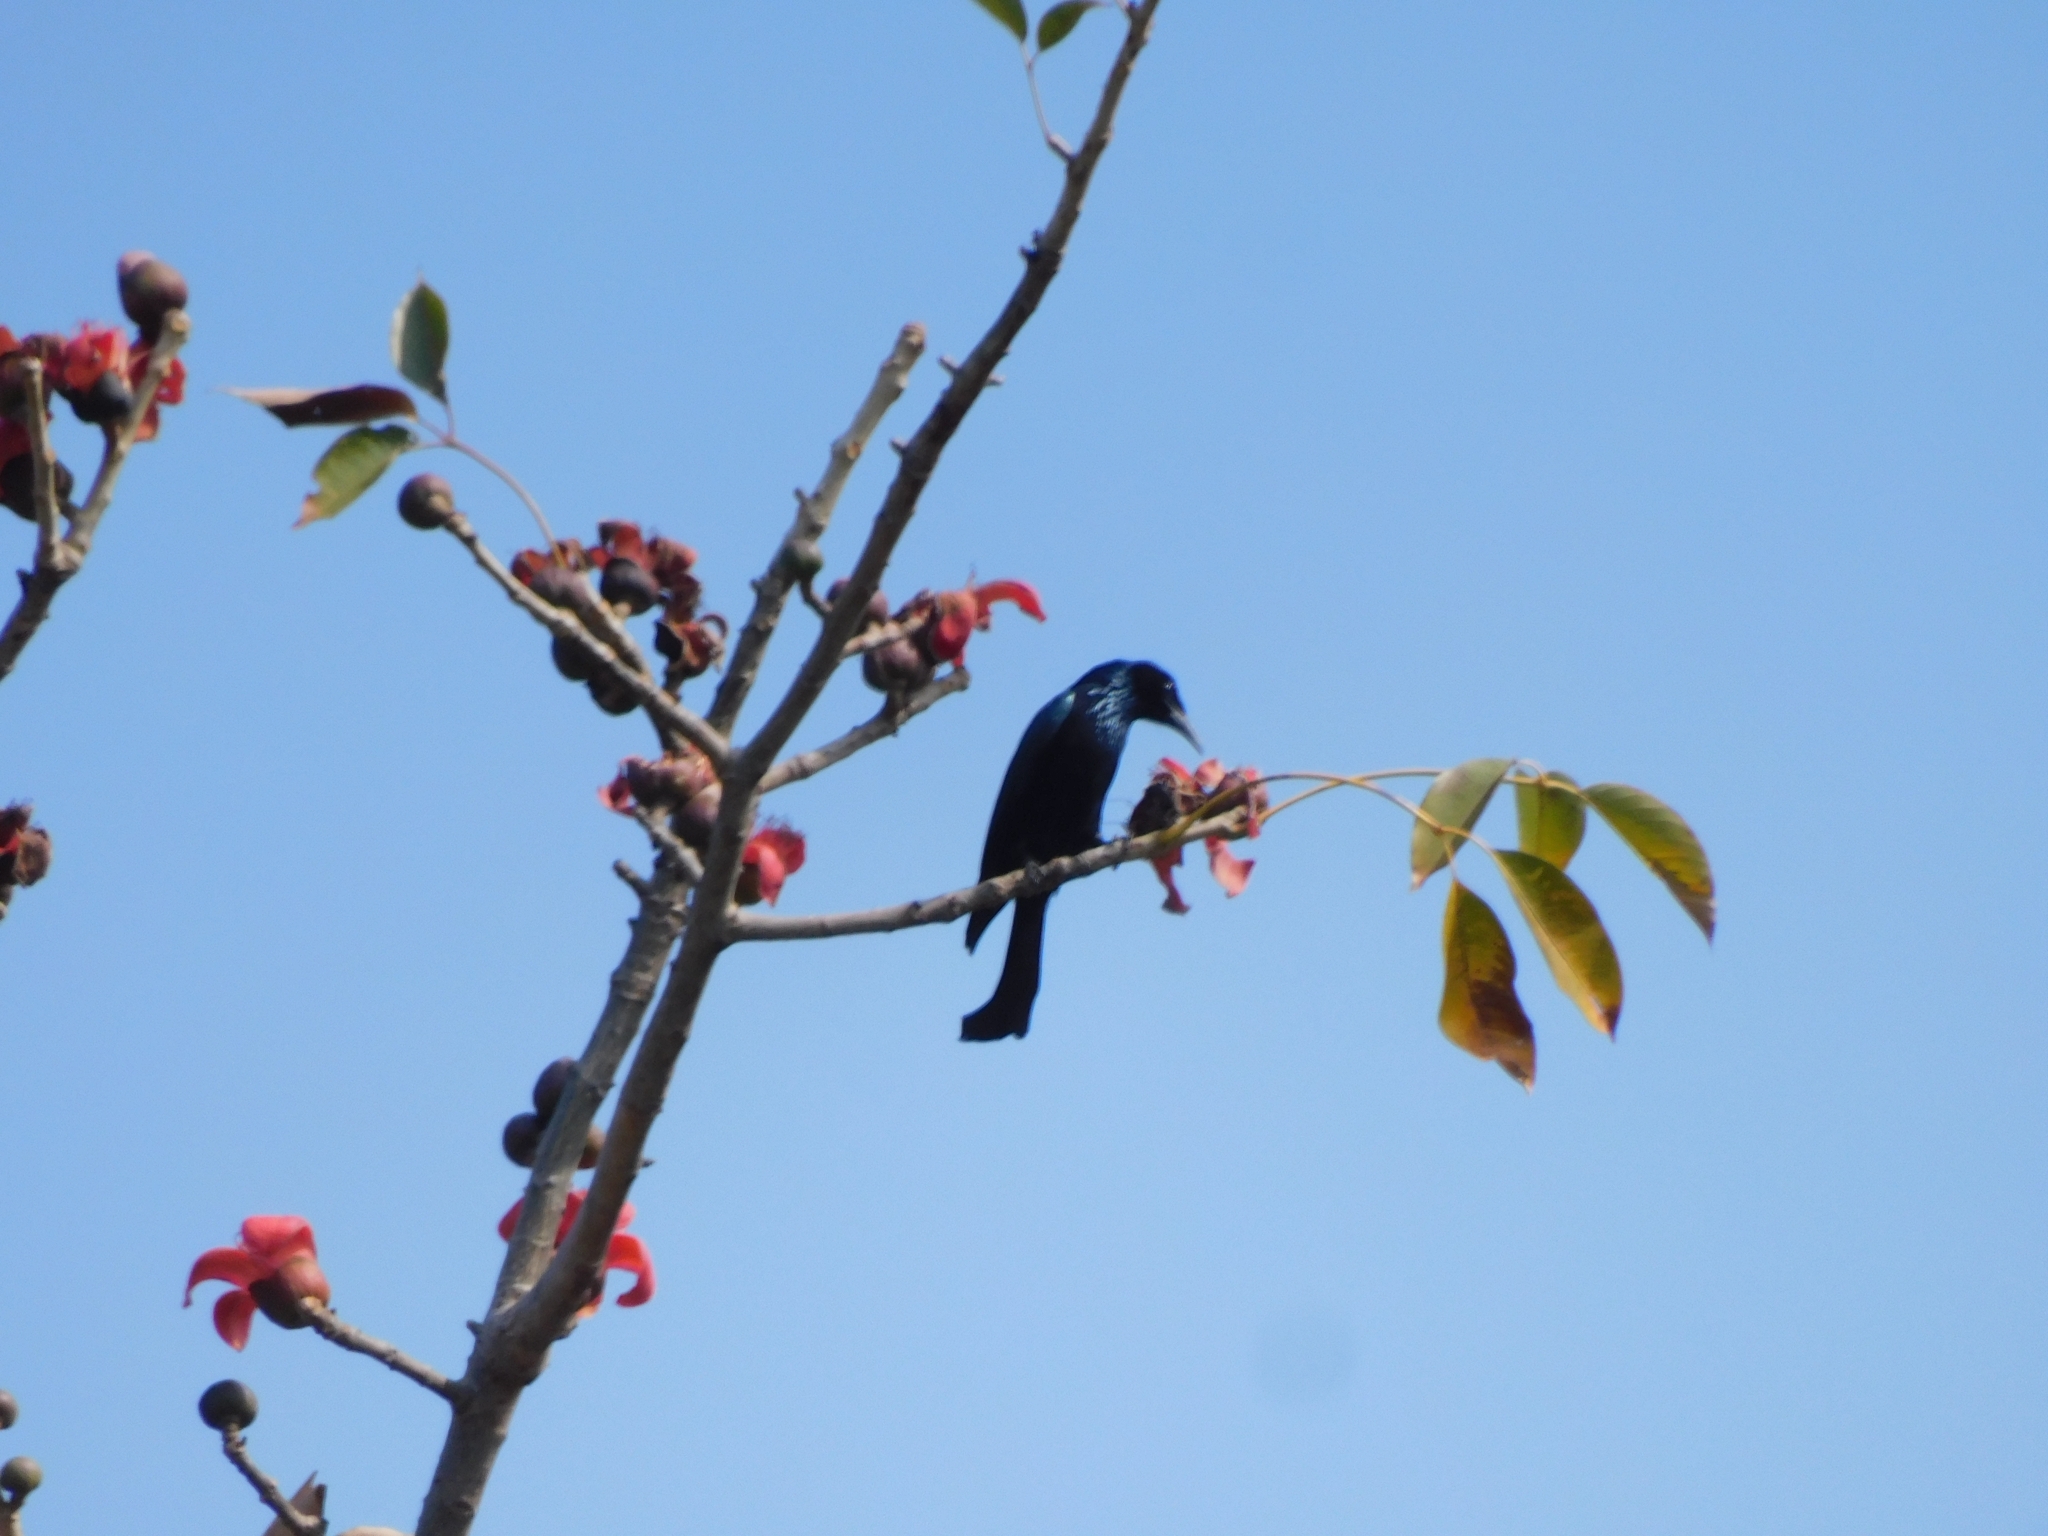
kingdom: Animalia
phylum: Chordata
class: Aves
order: Passeriformes
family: Dicruridae
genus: Dicrurus
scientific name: Dicrurus hottentottus
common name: Hair-crested drongo
